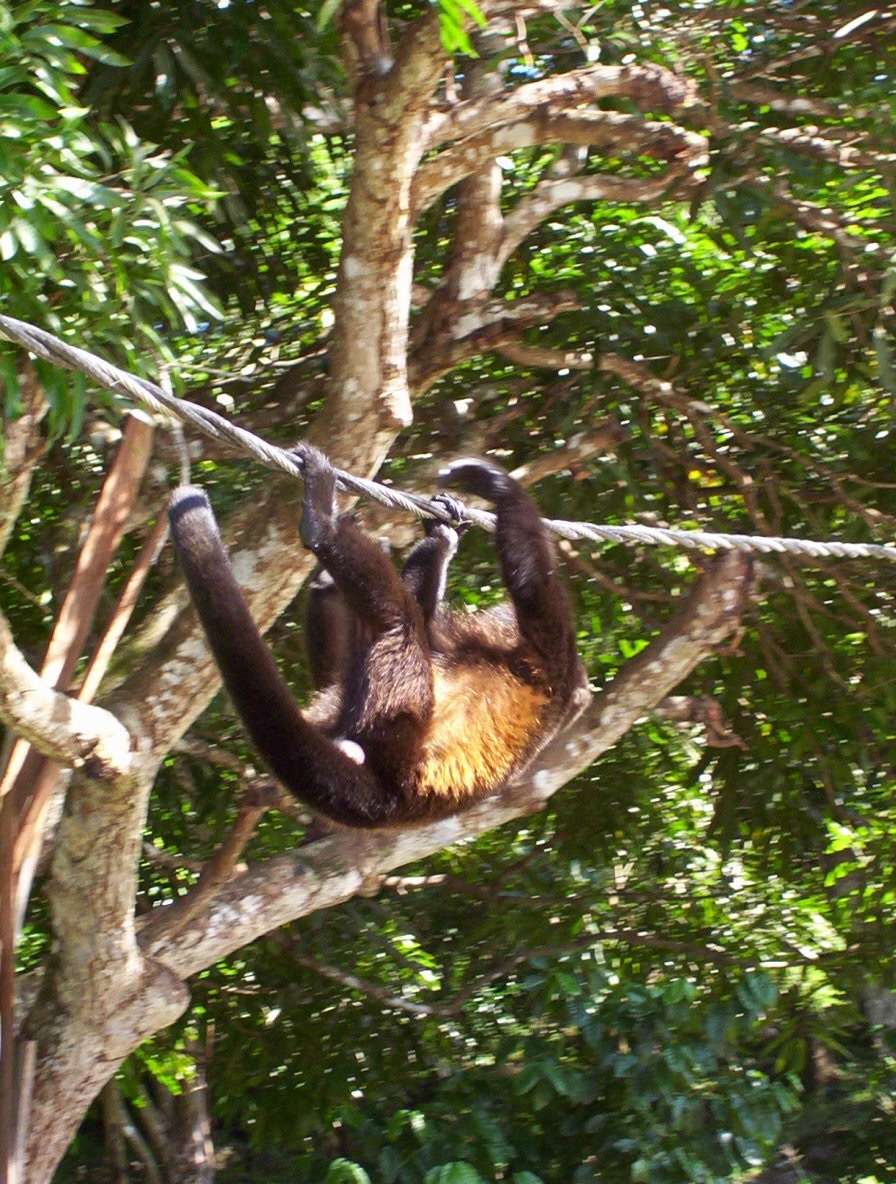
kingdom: Animalia
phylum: Chordata
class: Mammalia
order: Primates
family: Atelidae
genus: Alouatta
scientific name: Alouatta palliata
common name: Mantled howler
